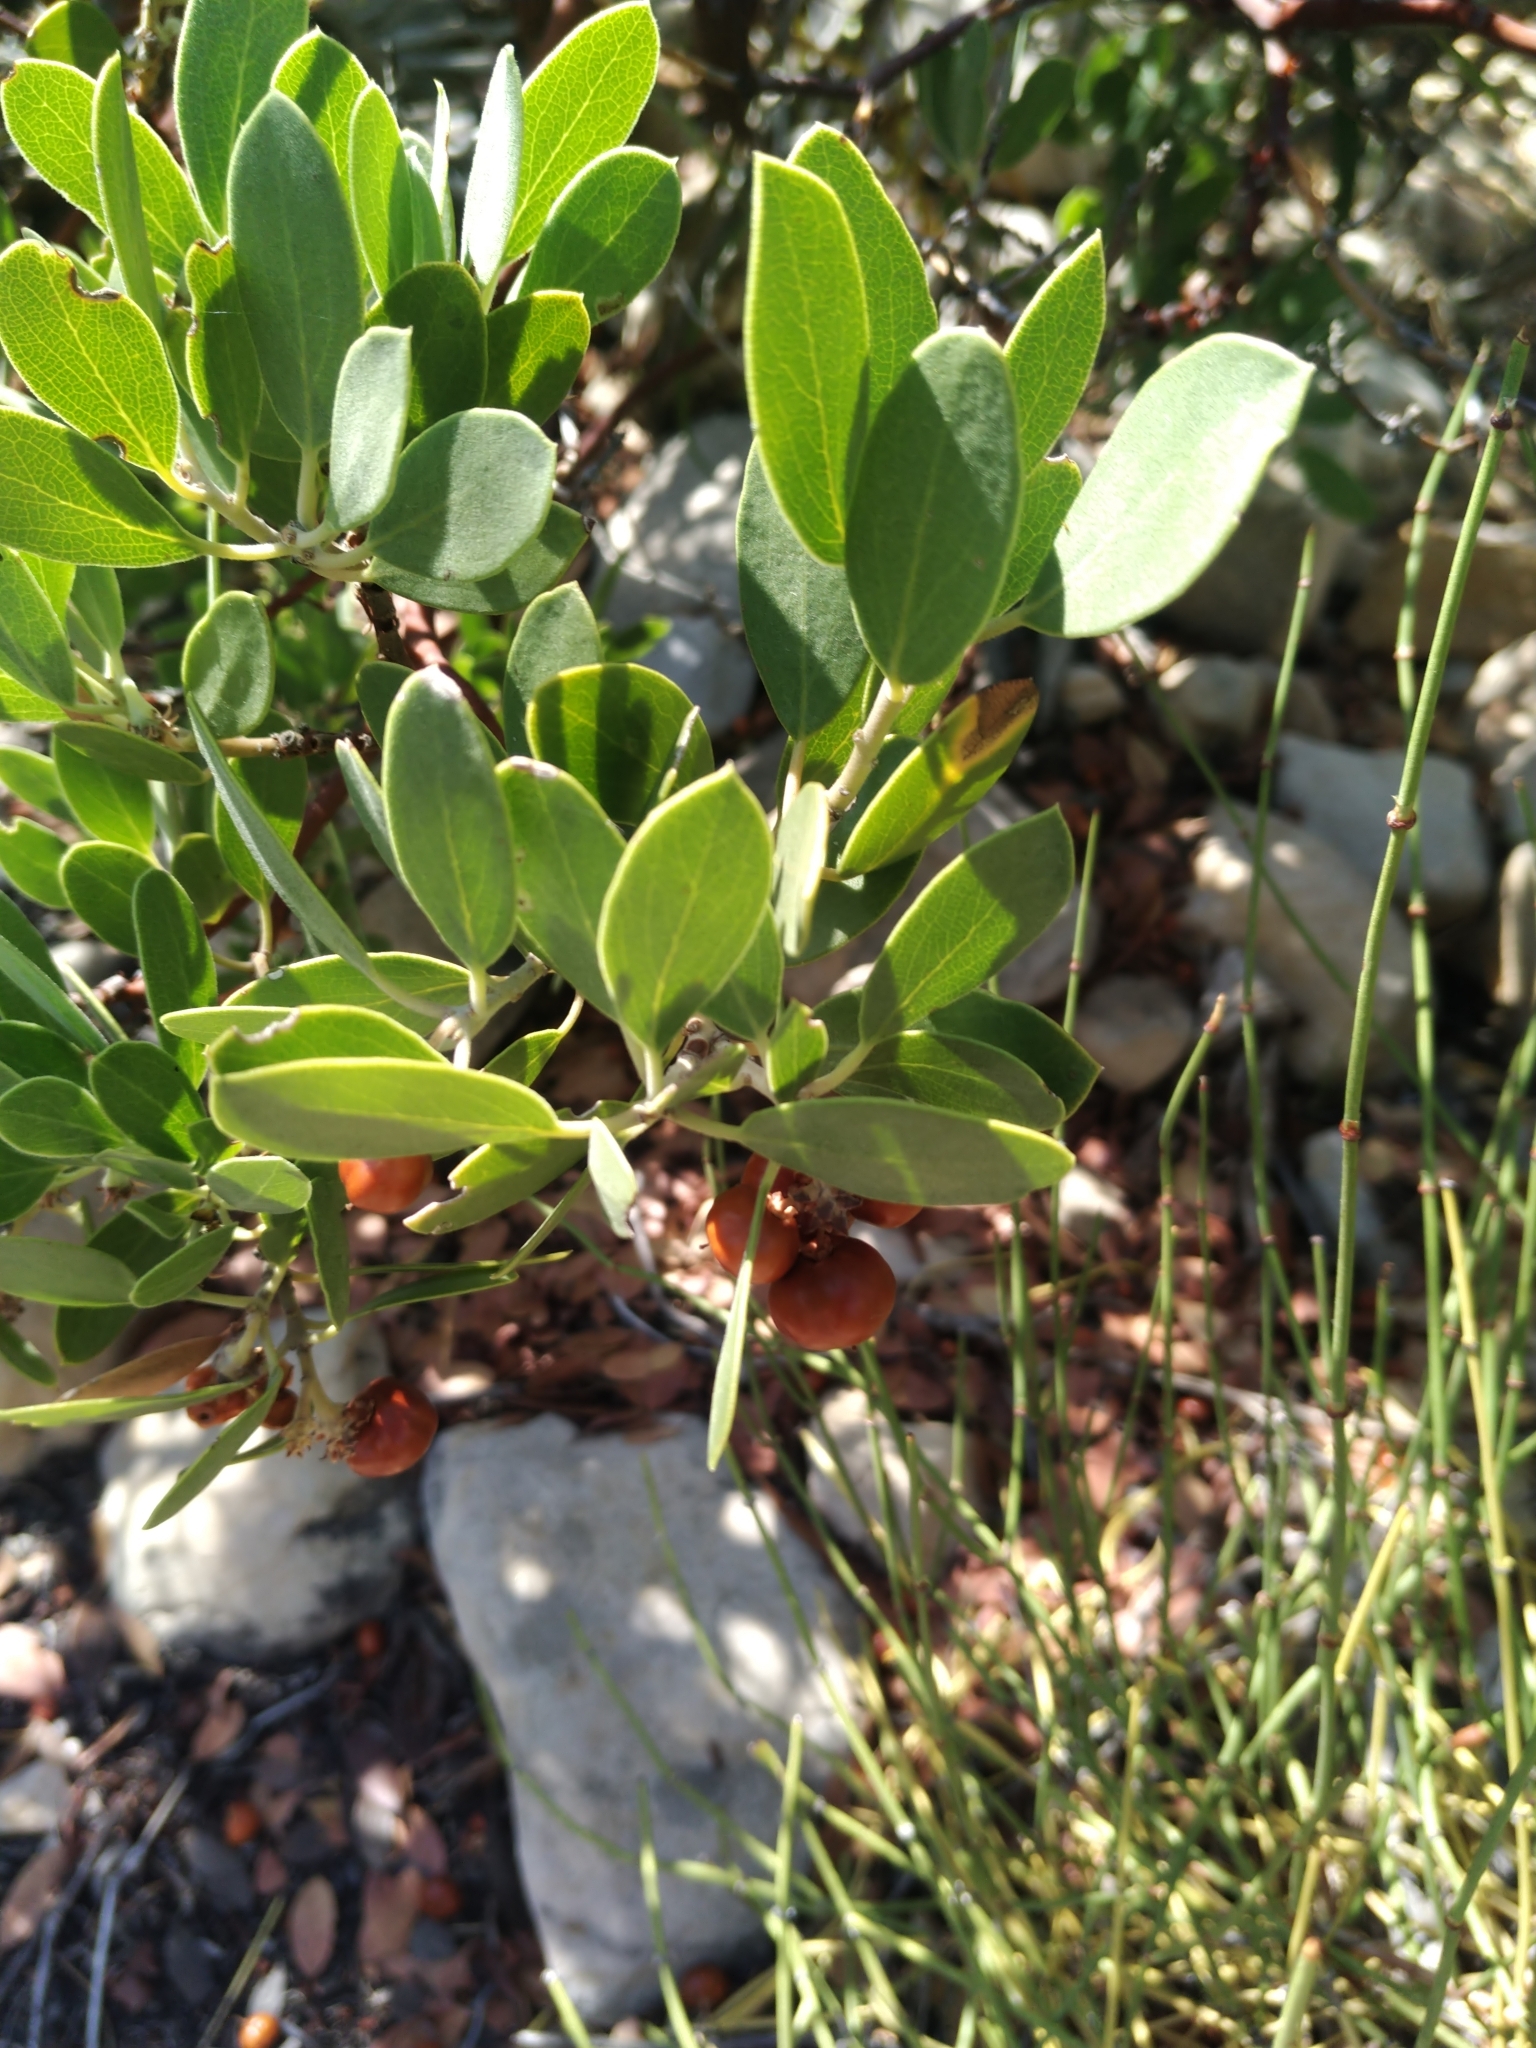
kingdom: Plantae
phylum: Tracheophyta
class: Magnoliopsida
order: Ericales
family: Ericaceae
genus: Arctostaphylos
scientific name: Arctostaphylos pungens
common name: Mexican manzanita
